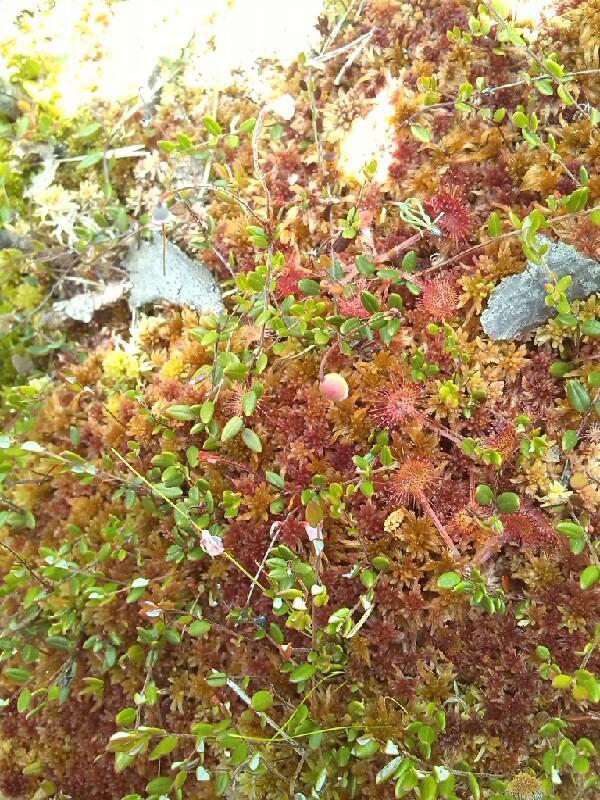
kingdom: Plantae
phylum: Tracheophyta
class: Magnoliopsida
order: Ericales
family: Ericaceae
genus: Vaccinium
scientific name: Vaccinium oxycoccos
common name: Cranberry
